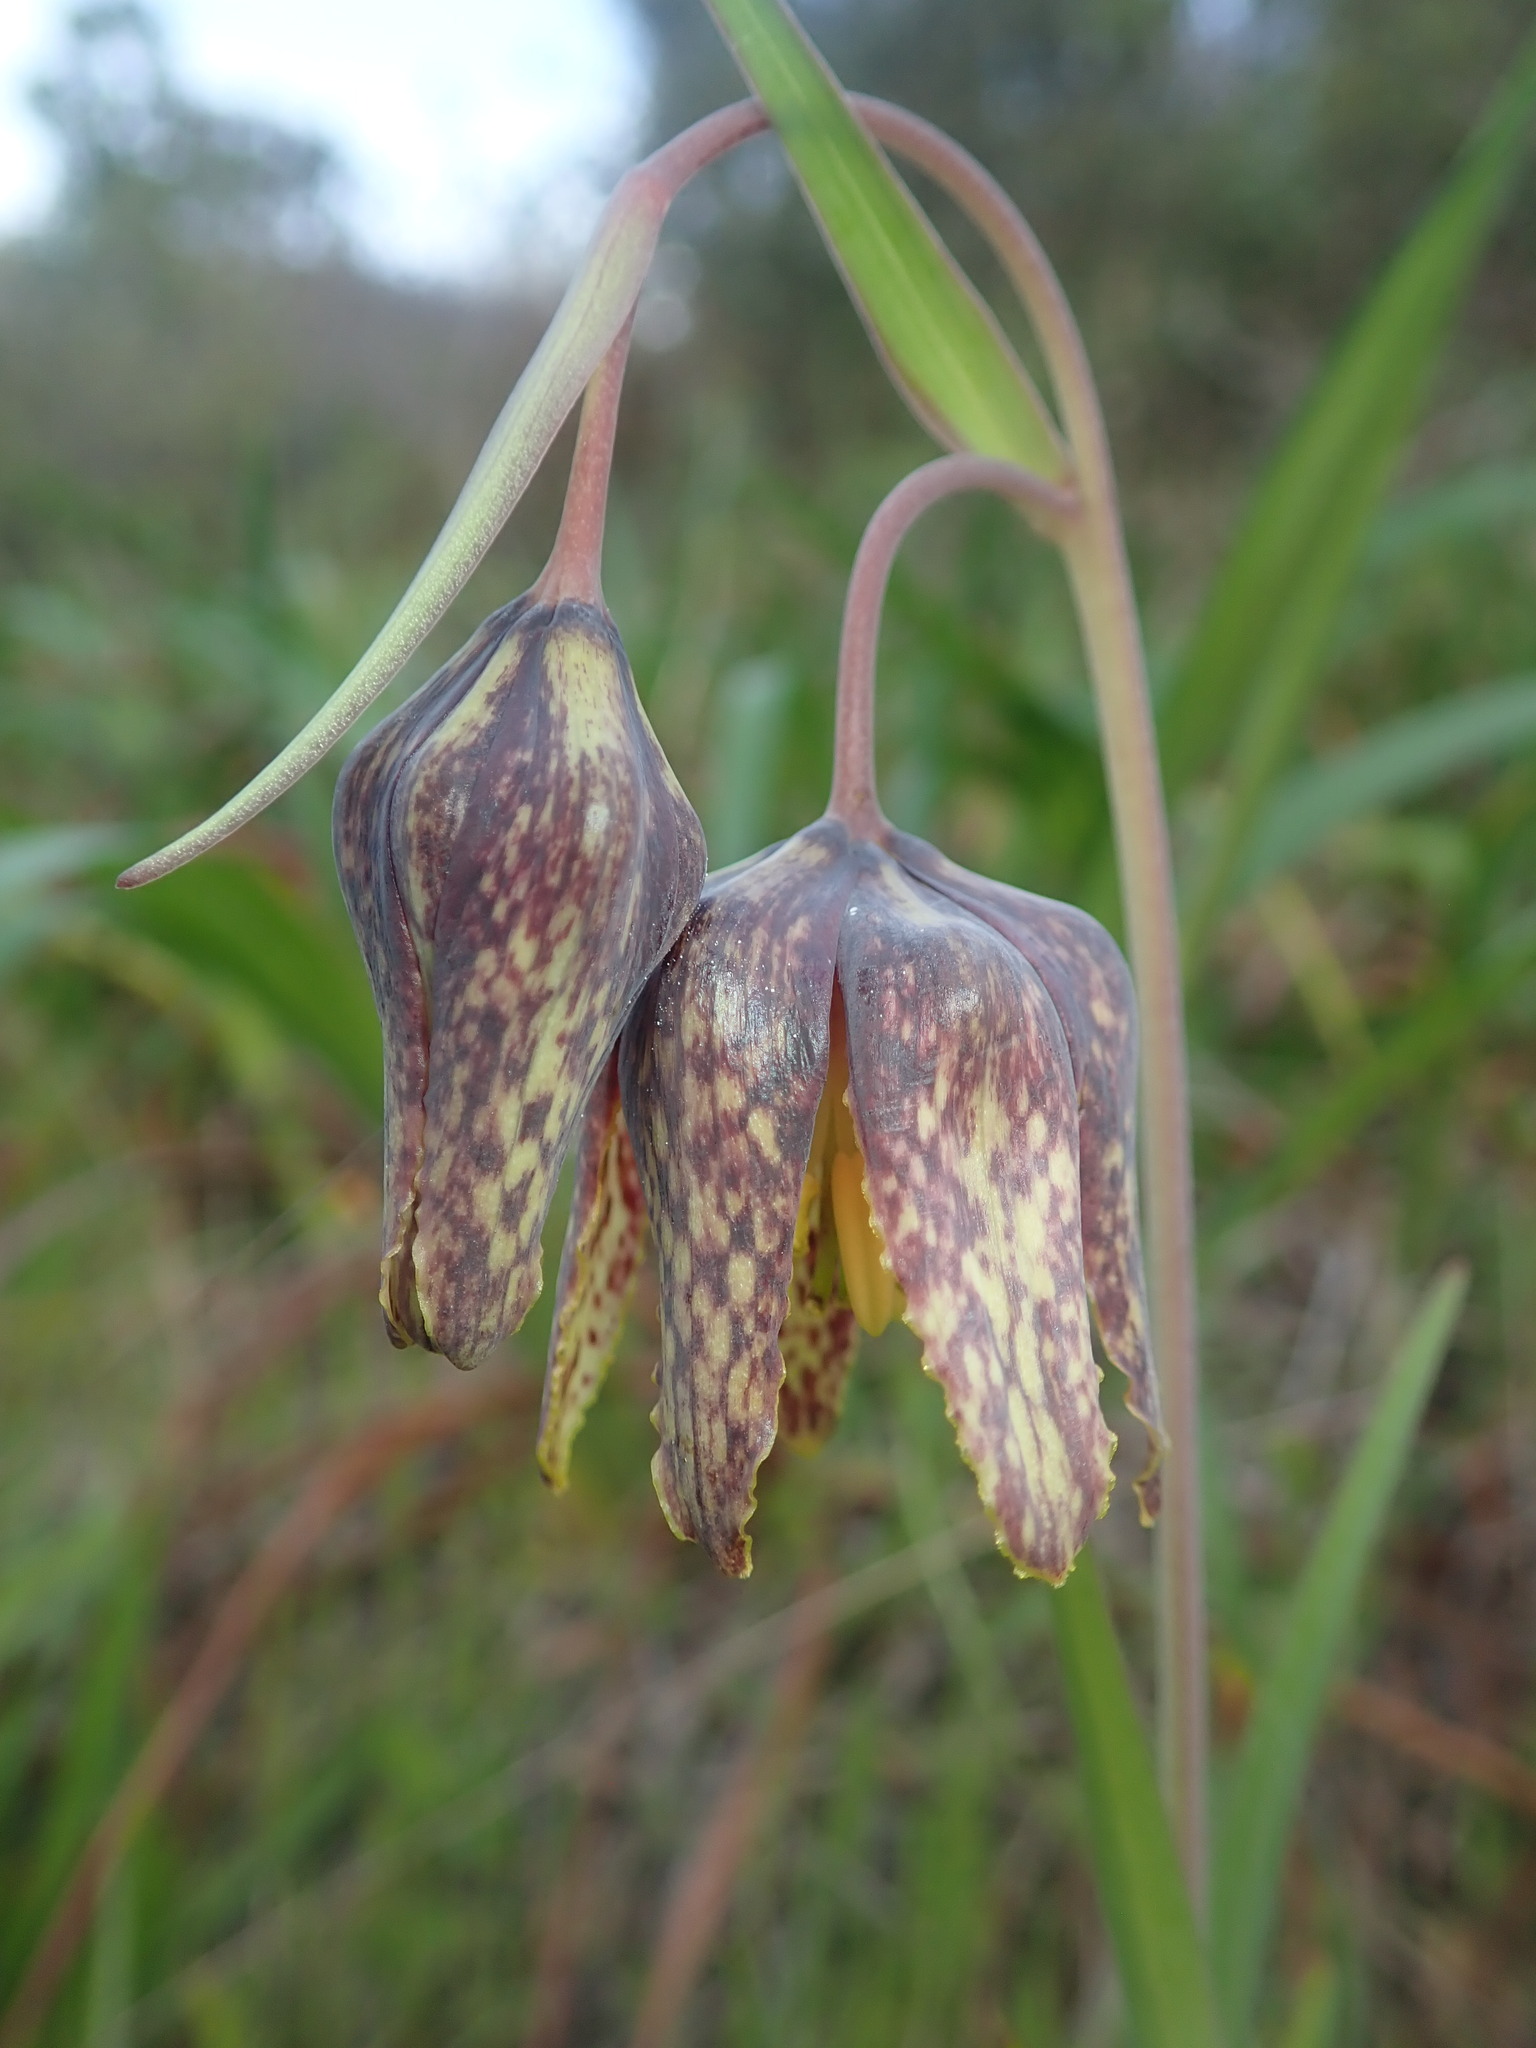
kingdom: Plantae
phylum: Tracheophyta
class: Liliopsida
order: Liliales
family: Liliaceae
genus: Fritillaria
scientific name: Fritillaria affinis
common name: Ojai fritillary
